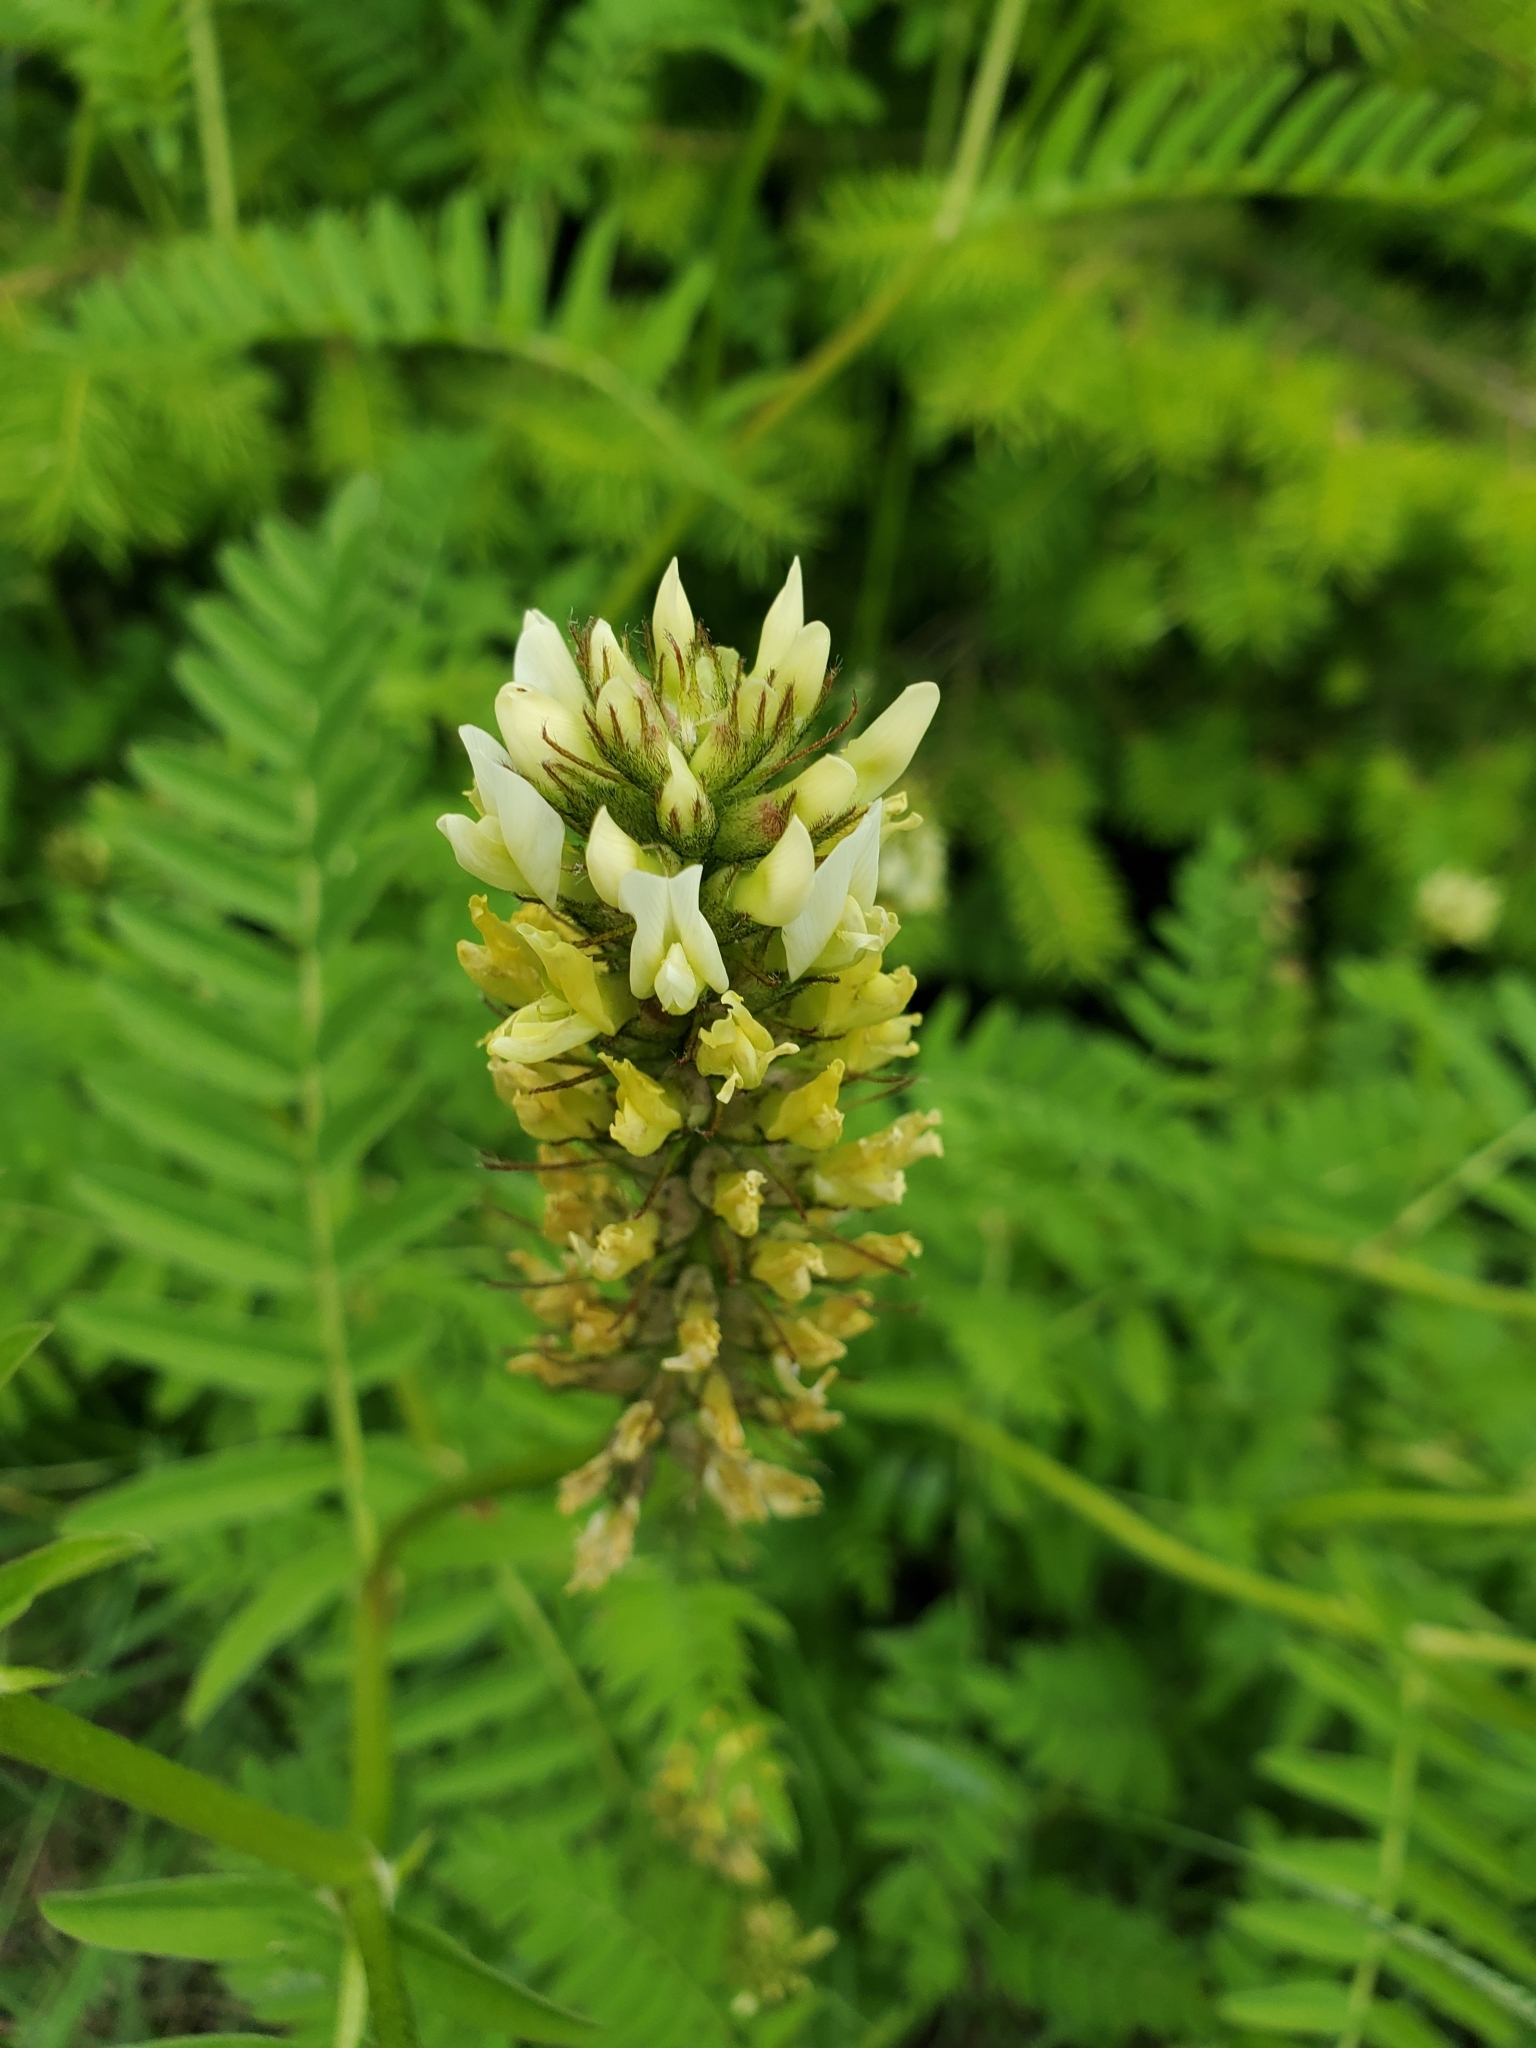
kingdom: Plantae
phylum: Tracheophyta
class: Magnoliopsida
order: Fabales
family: Fabaceae
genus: Astragalus
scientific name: Astragalus cicer
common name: Chick-pea milk-vetch
